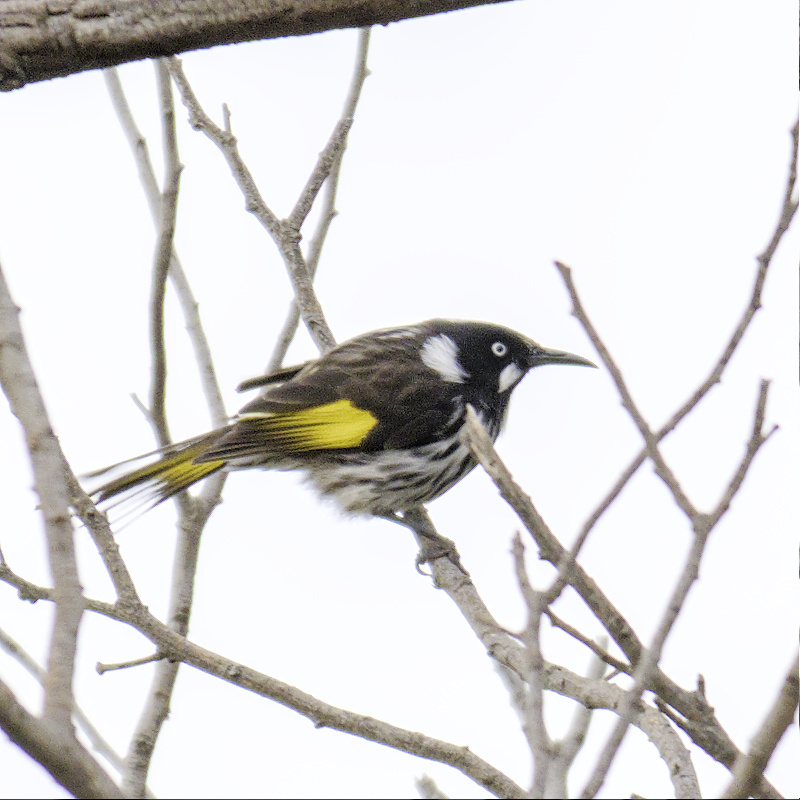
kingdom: Animalia
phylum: Chordata
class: Aves
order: Passeriformes
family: Meliphagidae
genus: Phylidonyris
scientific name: Phylidonyris novaehollandiae
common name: New holland honeyeater
